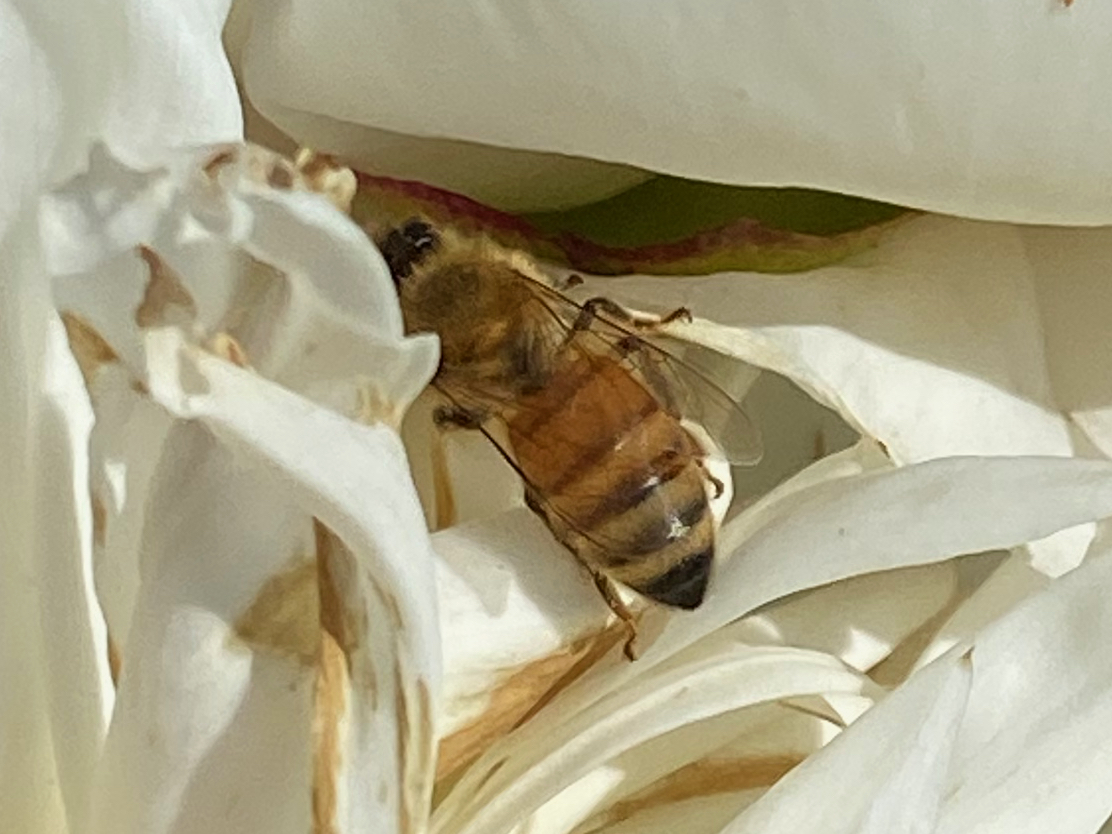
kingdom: Animalia
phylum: Arthropoda
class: Insecta
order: Hymenoptera
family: Apidae
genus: Apis
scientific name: Apis mellifera
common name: Honey bee
